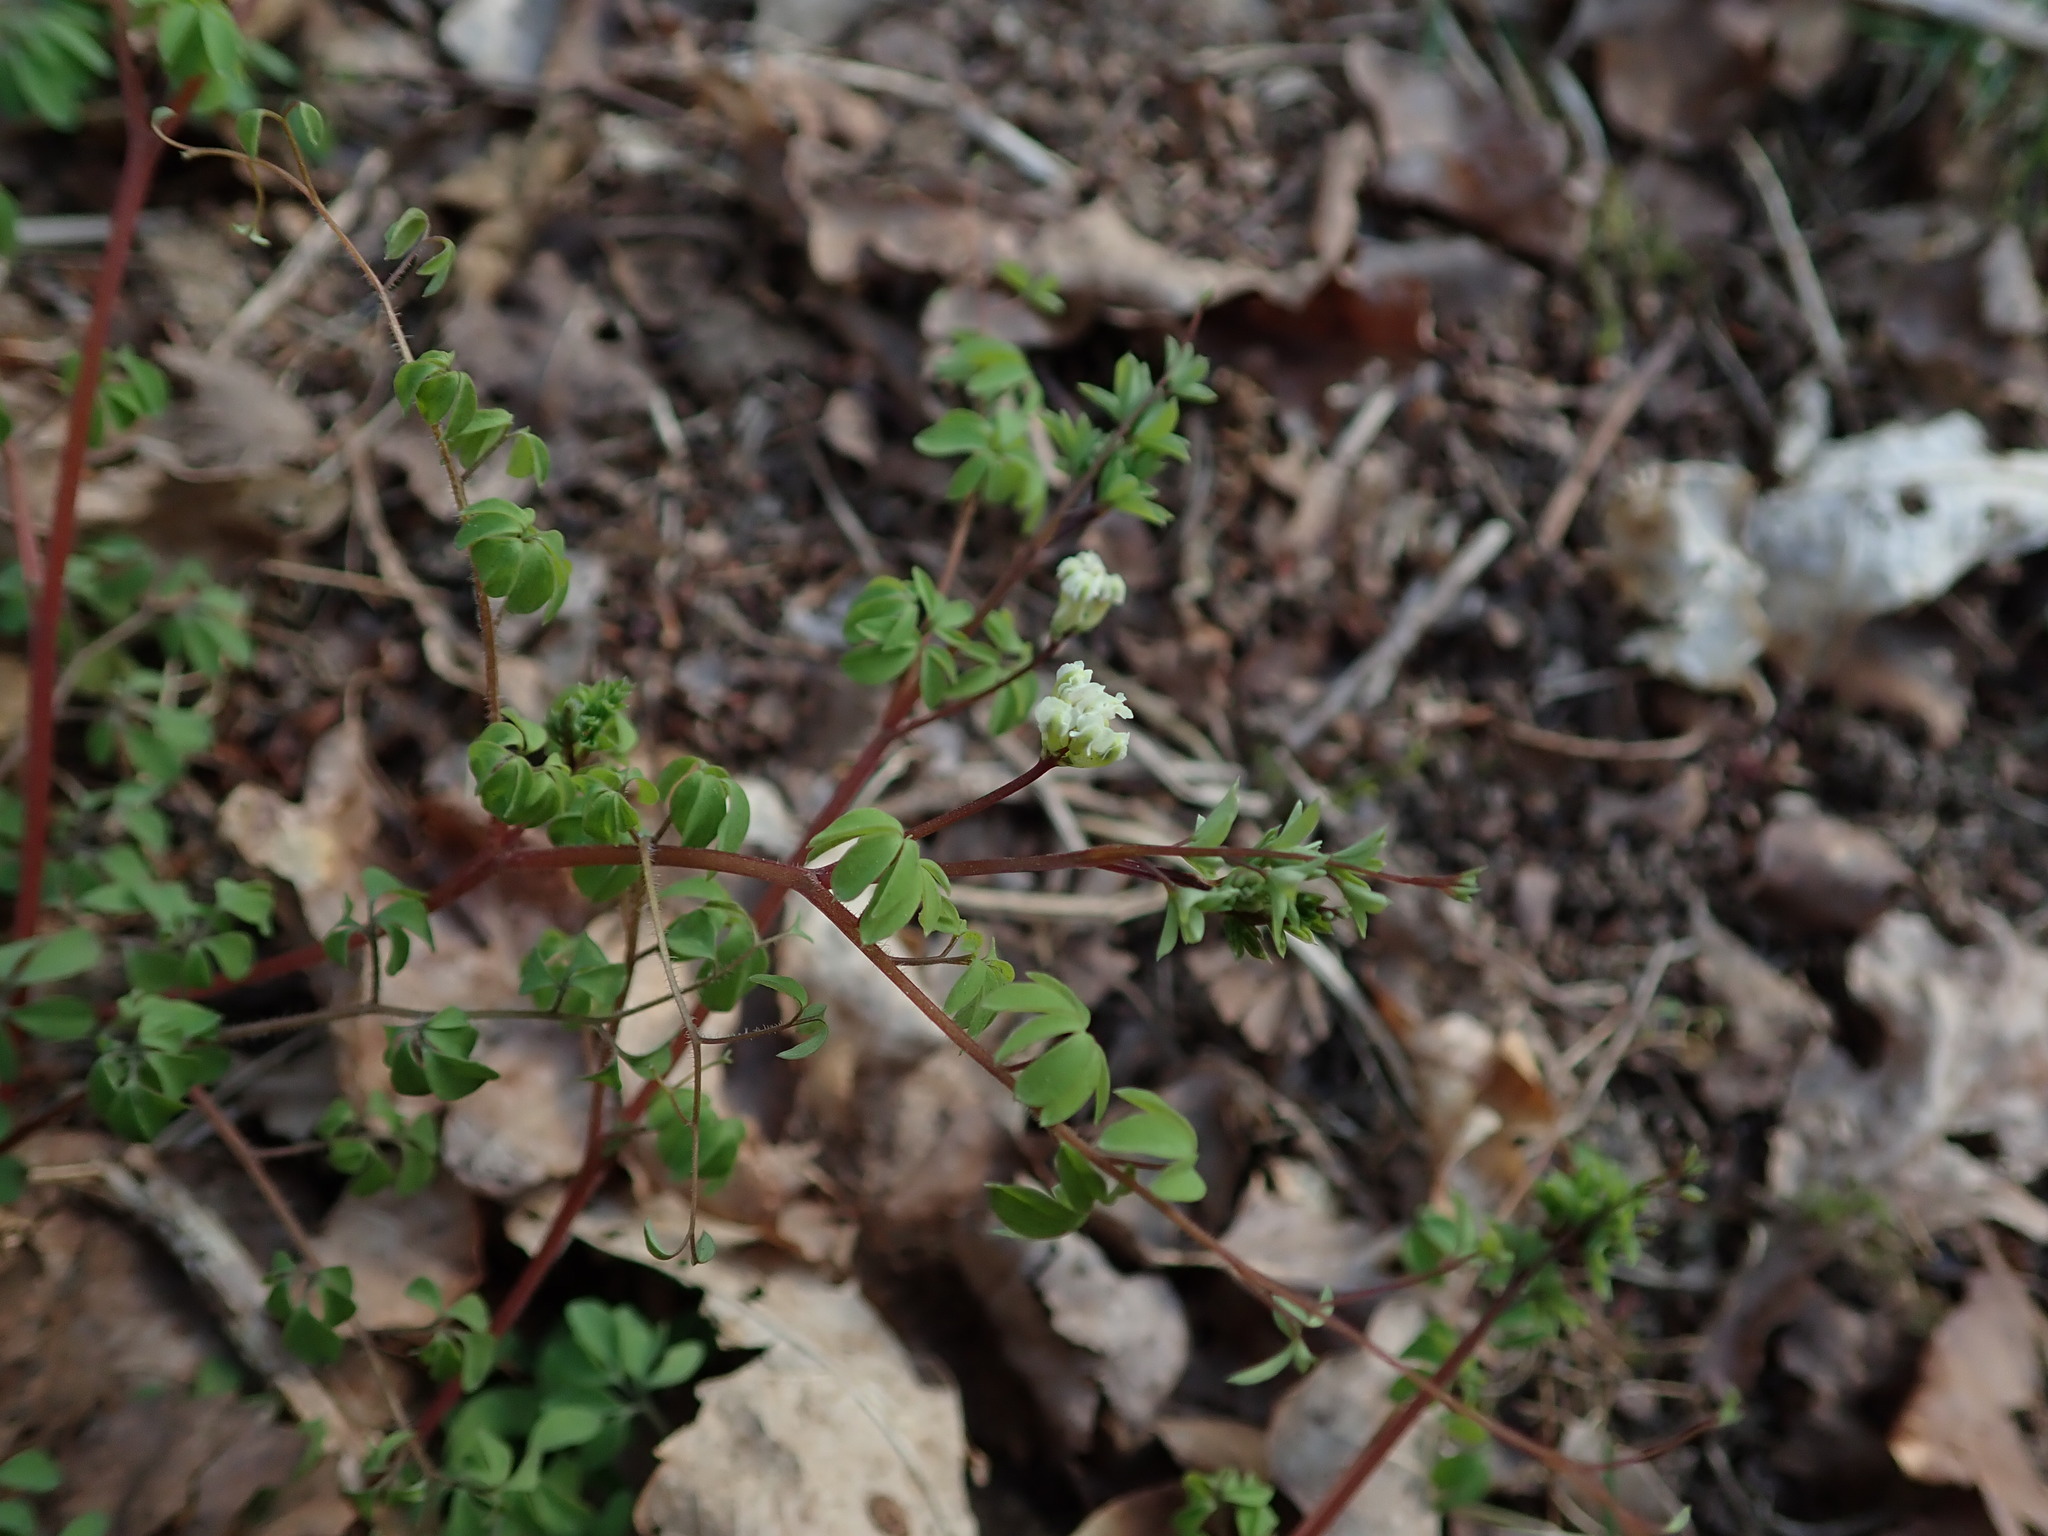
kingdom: Plantae
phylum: Tracheophyta
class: Magnoliopsida
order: Ranunculales
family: Papaveraceae
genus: Ceratocapnos
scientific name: Ceratocapnos claviculata
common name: Climbing corydalis
